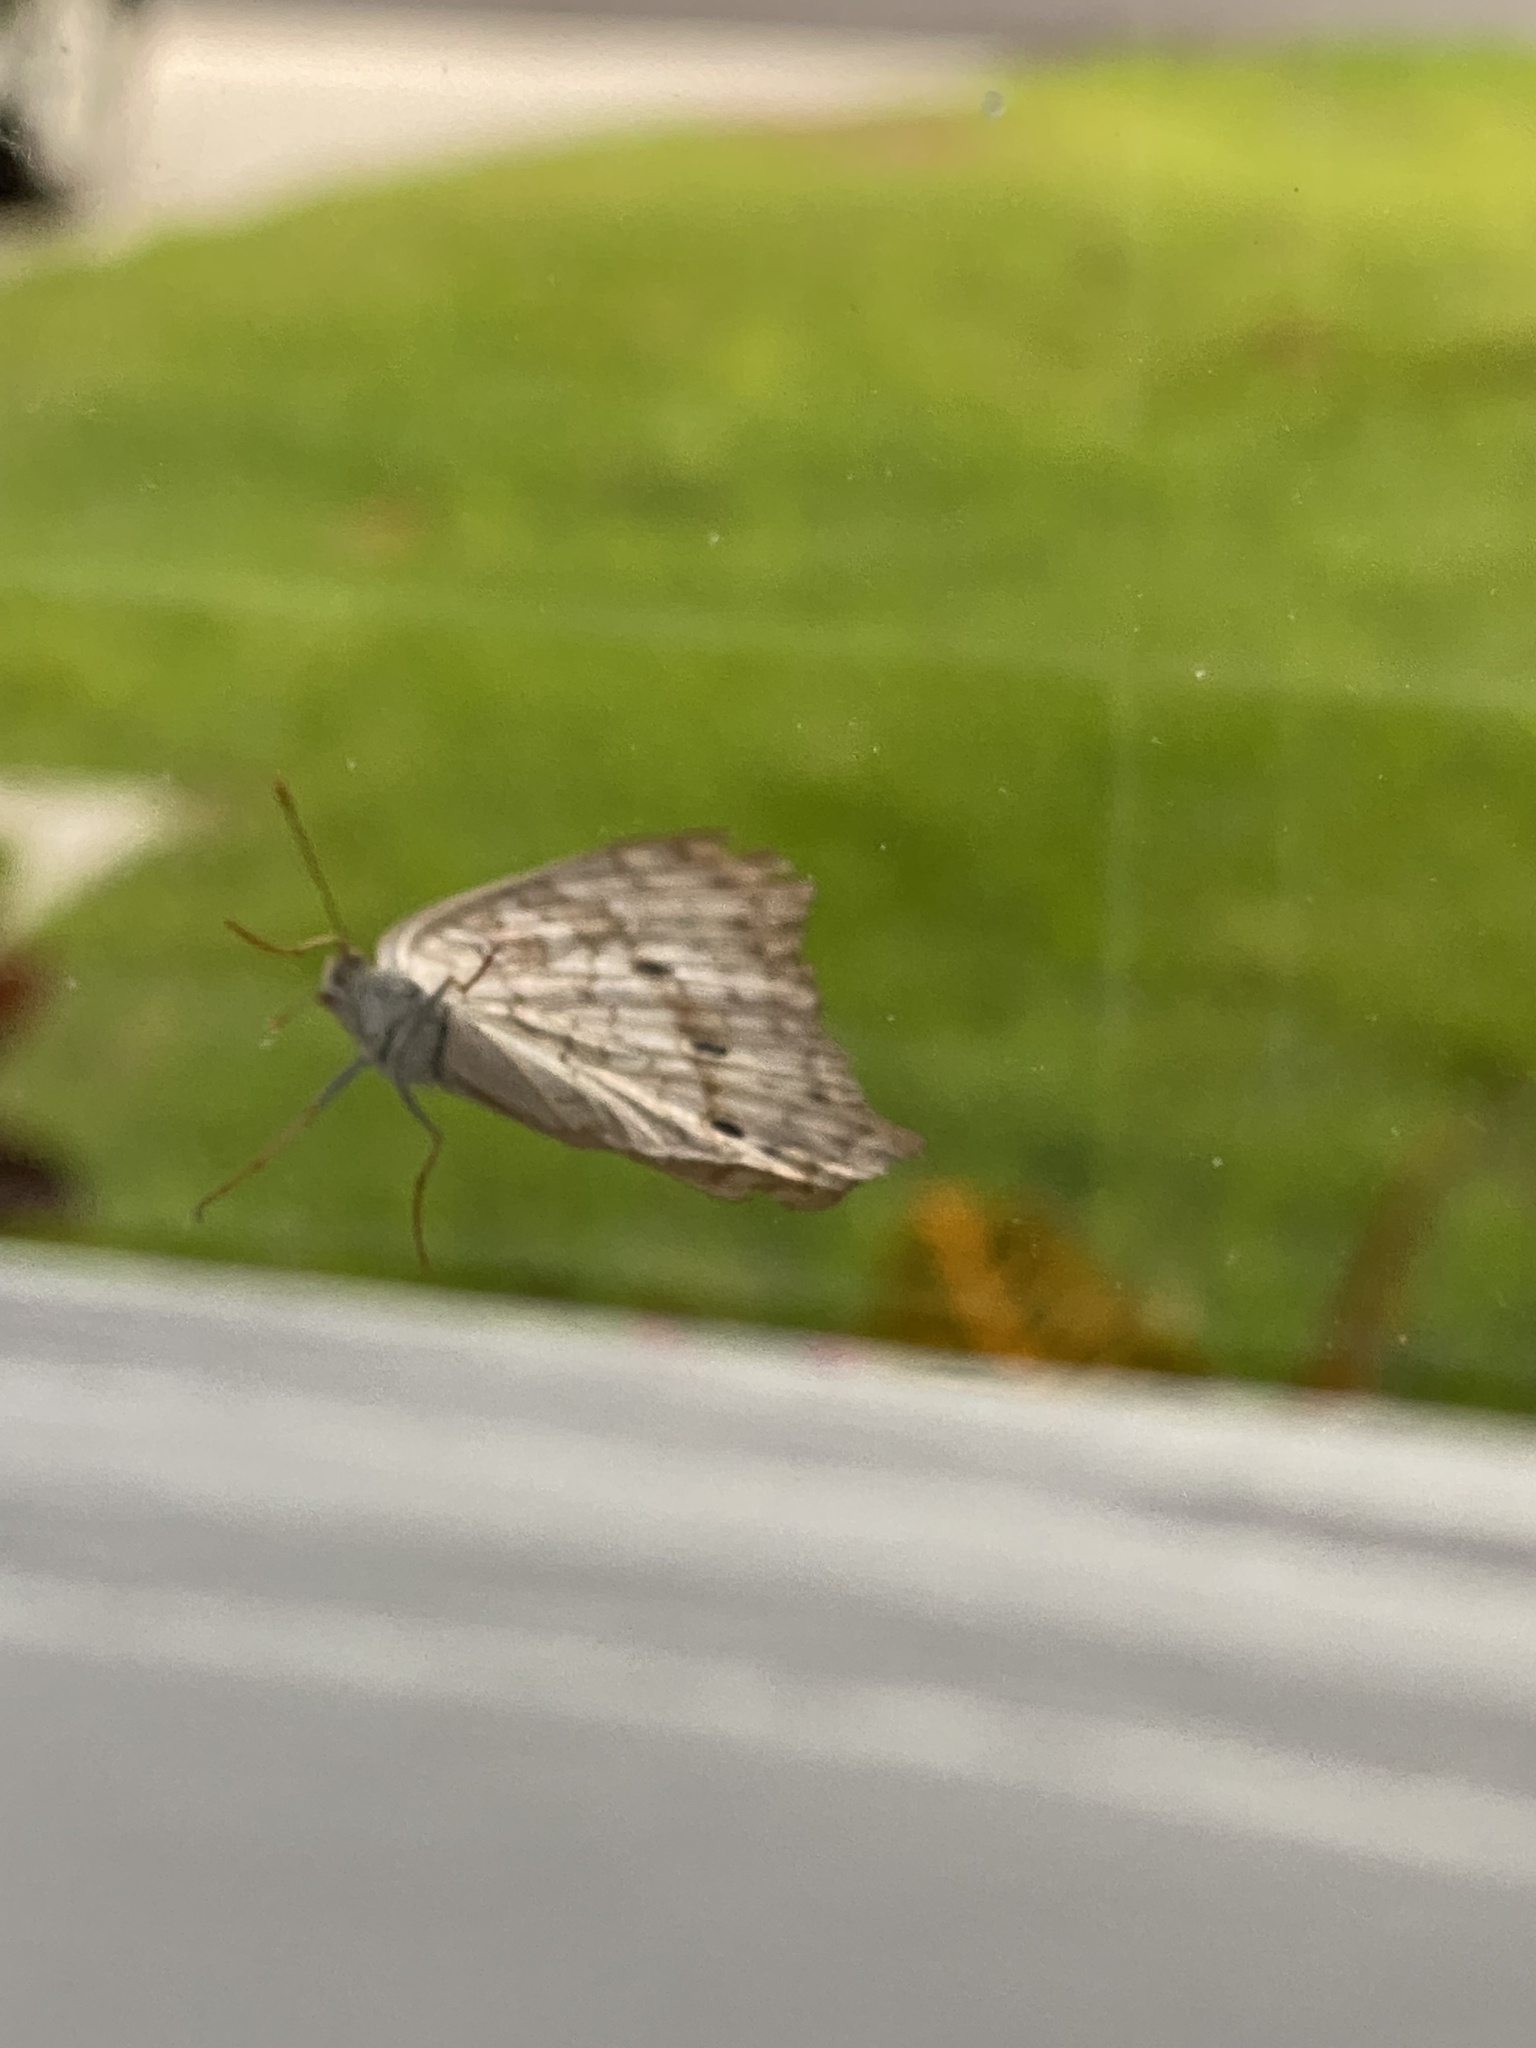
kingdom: Animalia
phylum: Arthropoda
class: Insecta
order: Lepidoptera
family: Nymphalidae
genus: Anartia
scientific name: Anartia jatrophae
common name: White peacock
